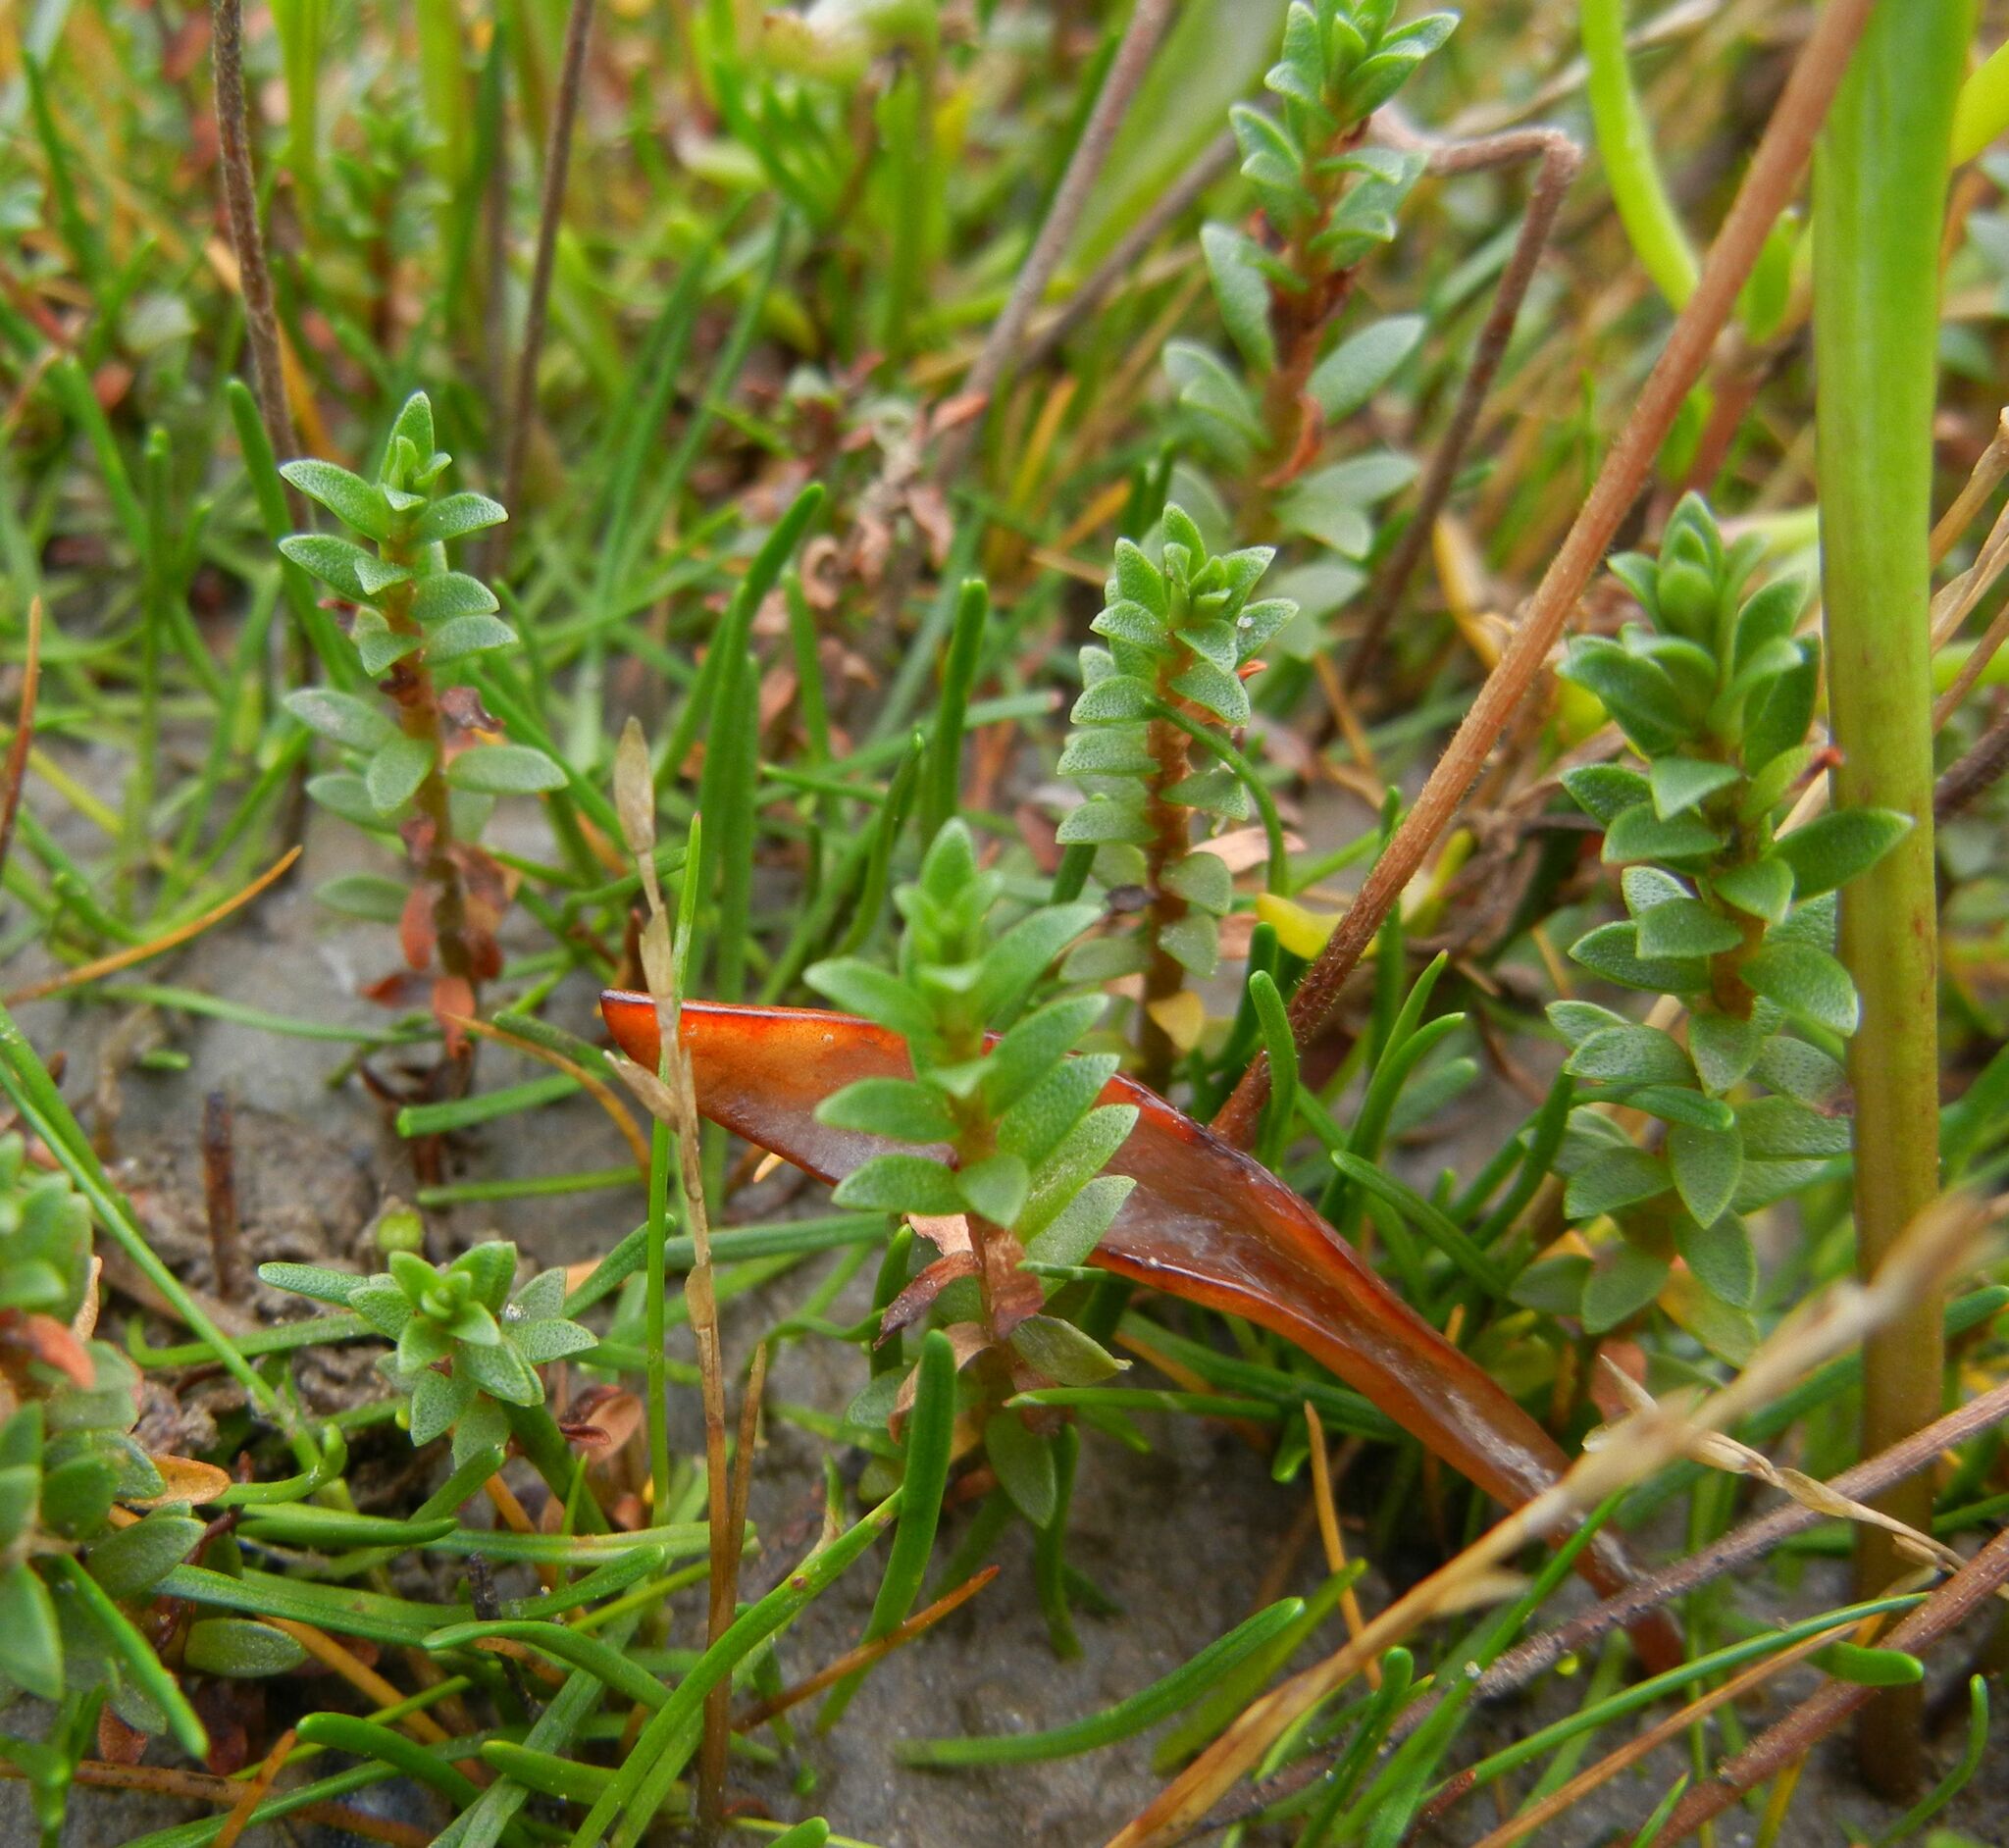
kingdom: Plantae
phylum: Tracheophyta
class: Magnoliopsida
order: Ericales
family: Primulaceae
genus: Lysimachia
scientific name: Lysimachia maritima
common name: Sea milkwort
